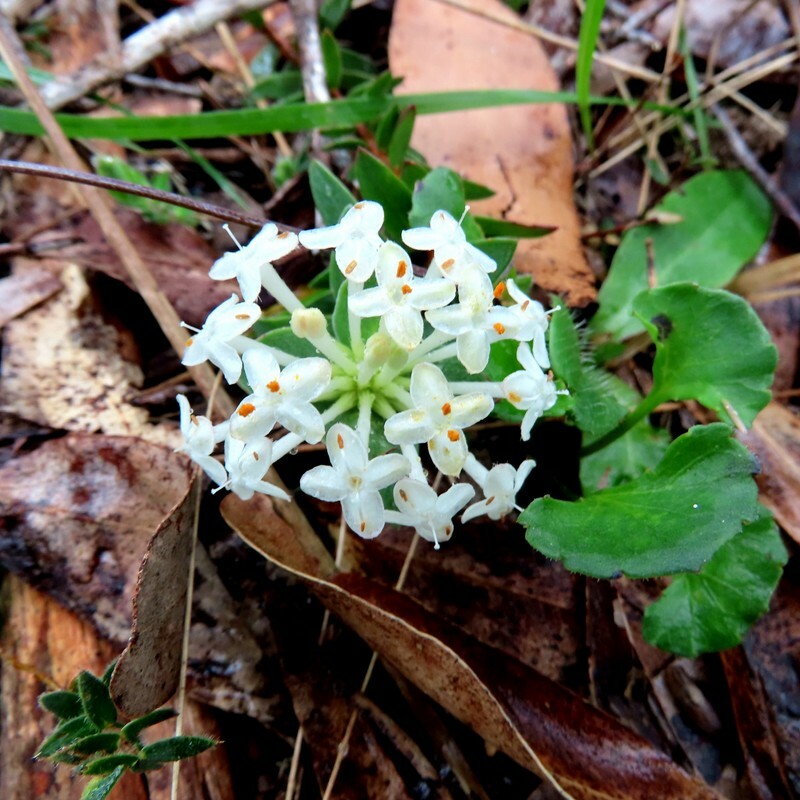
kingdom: Plantae
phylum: Tracheophyta
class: Magnoliopsida
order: Malvales
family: Thymelaeaceae
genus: Pimelea
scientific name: Pimelea humilis
